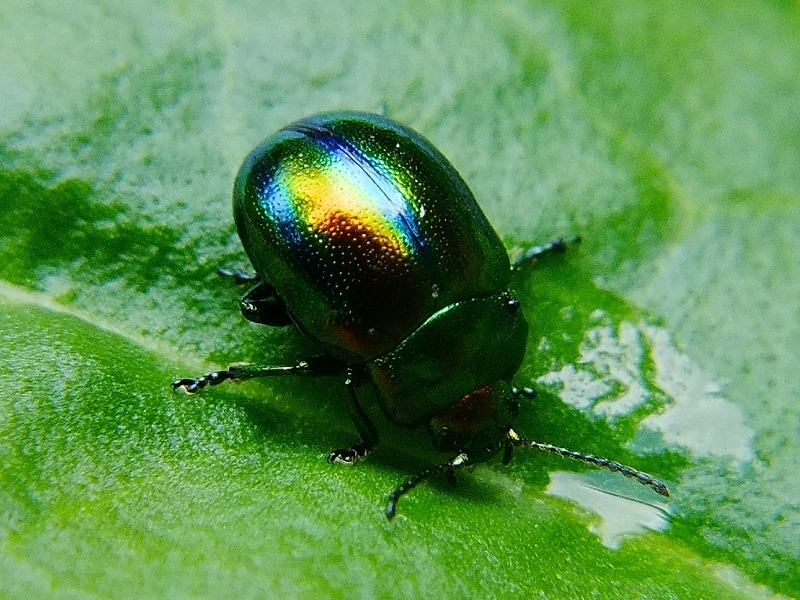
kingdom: Animalia
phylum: Arthropoda
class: Insecta
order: Coleoptera
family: Chrysomelidae
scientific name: Chrysomelidae
